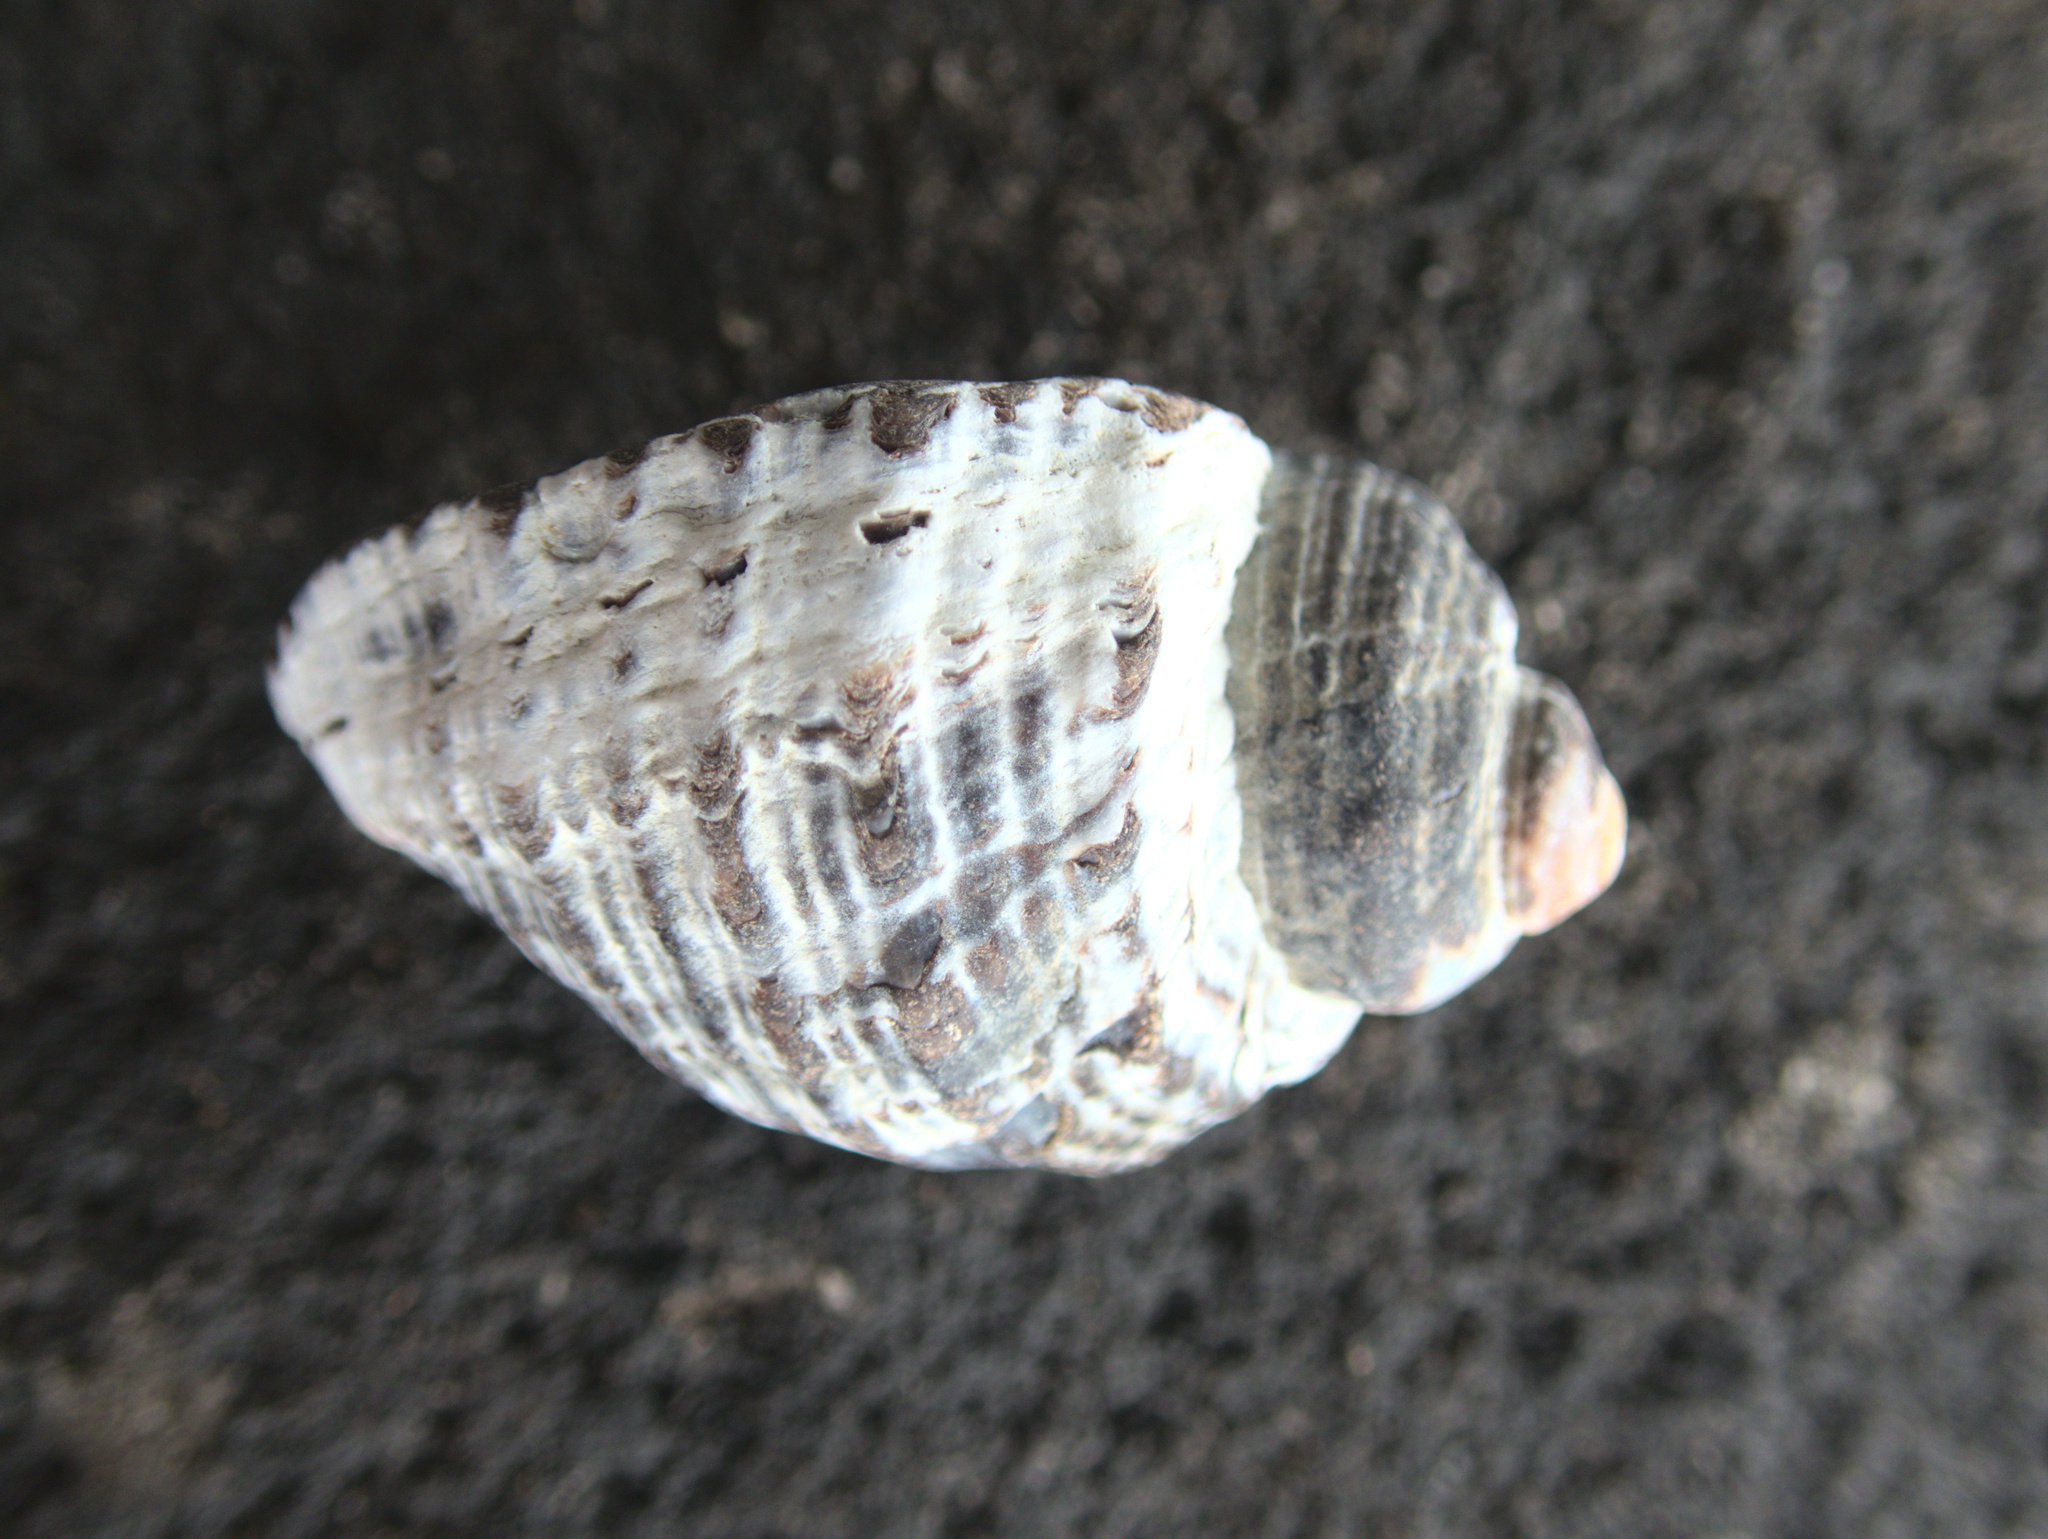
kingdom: Animalia
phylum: Mollusca
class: Gastropoda
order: Neogastropoda
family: Muricidae
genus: Haustrum
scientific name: Haustrum haustorium
